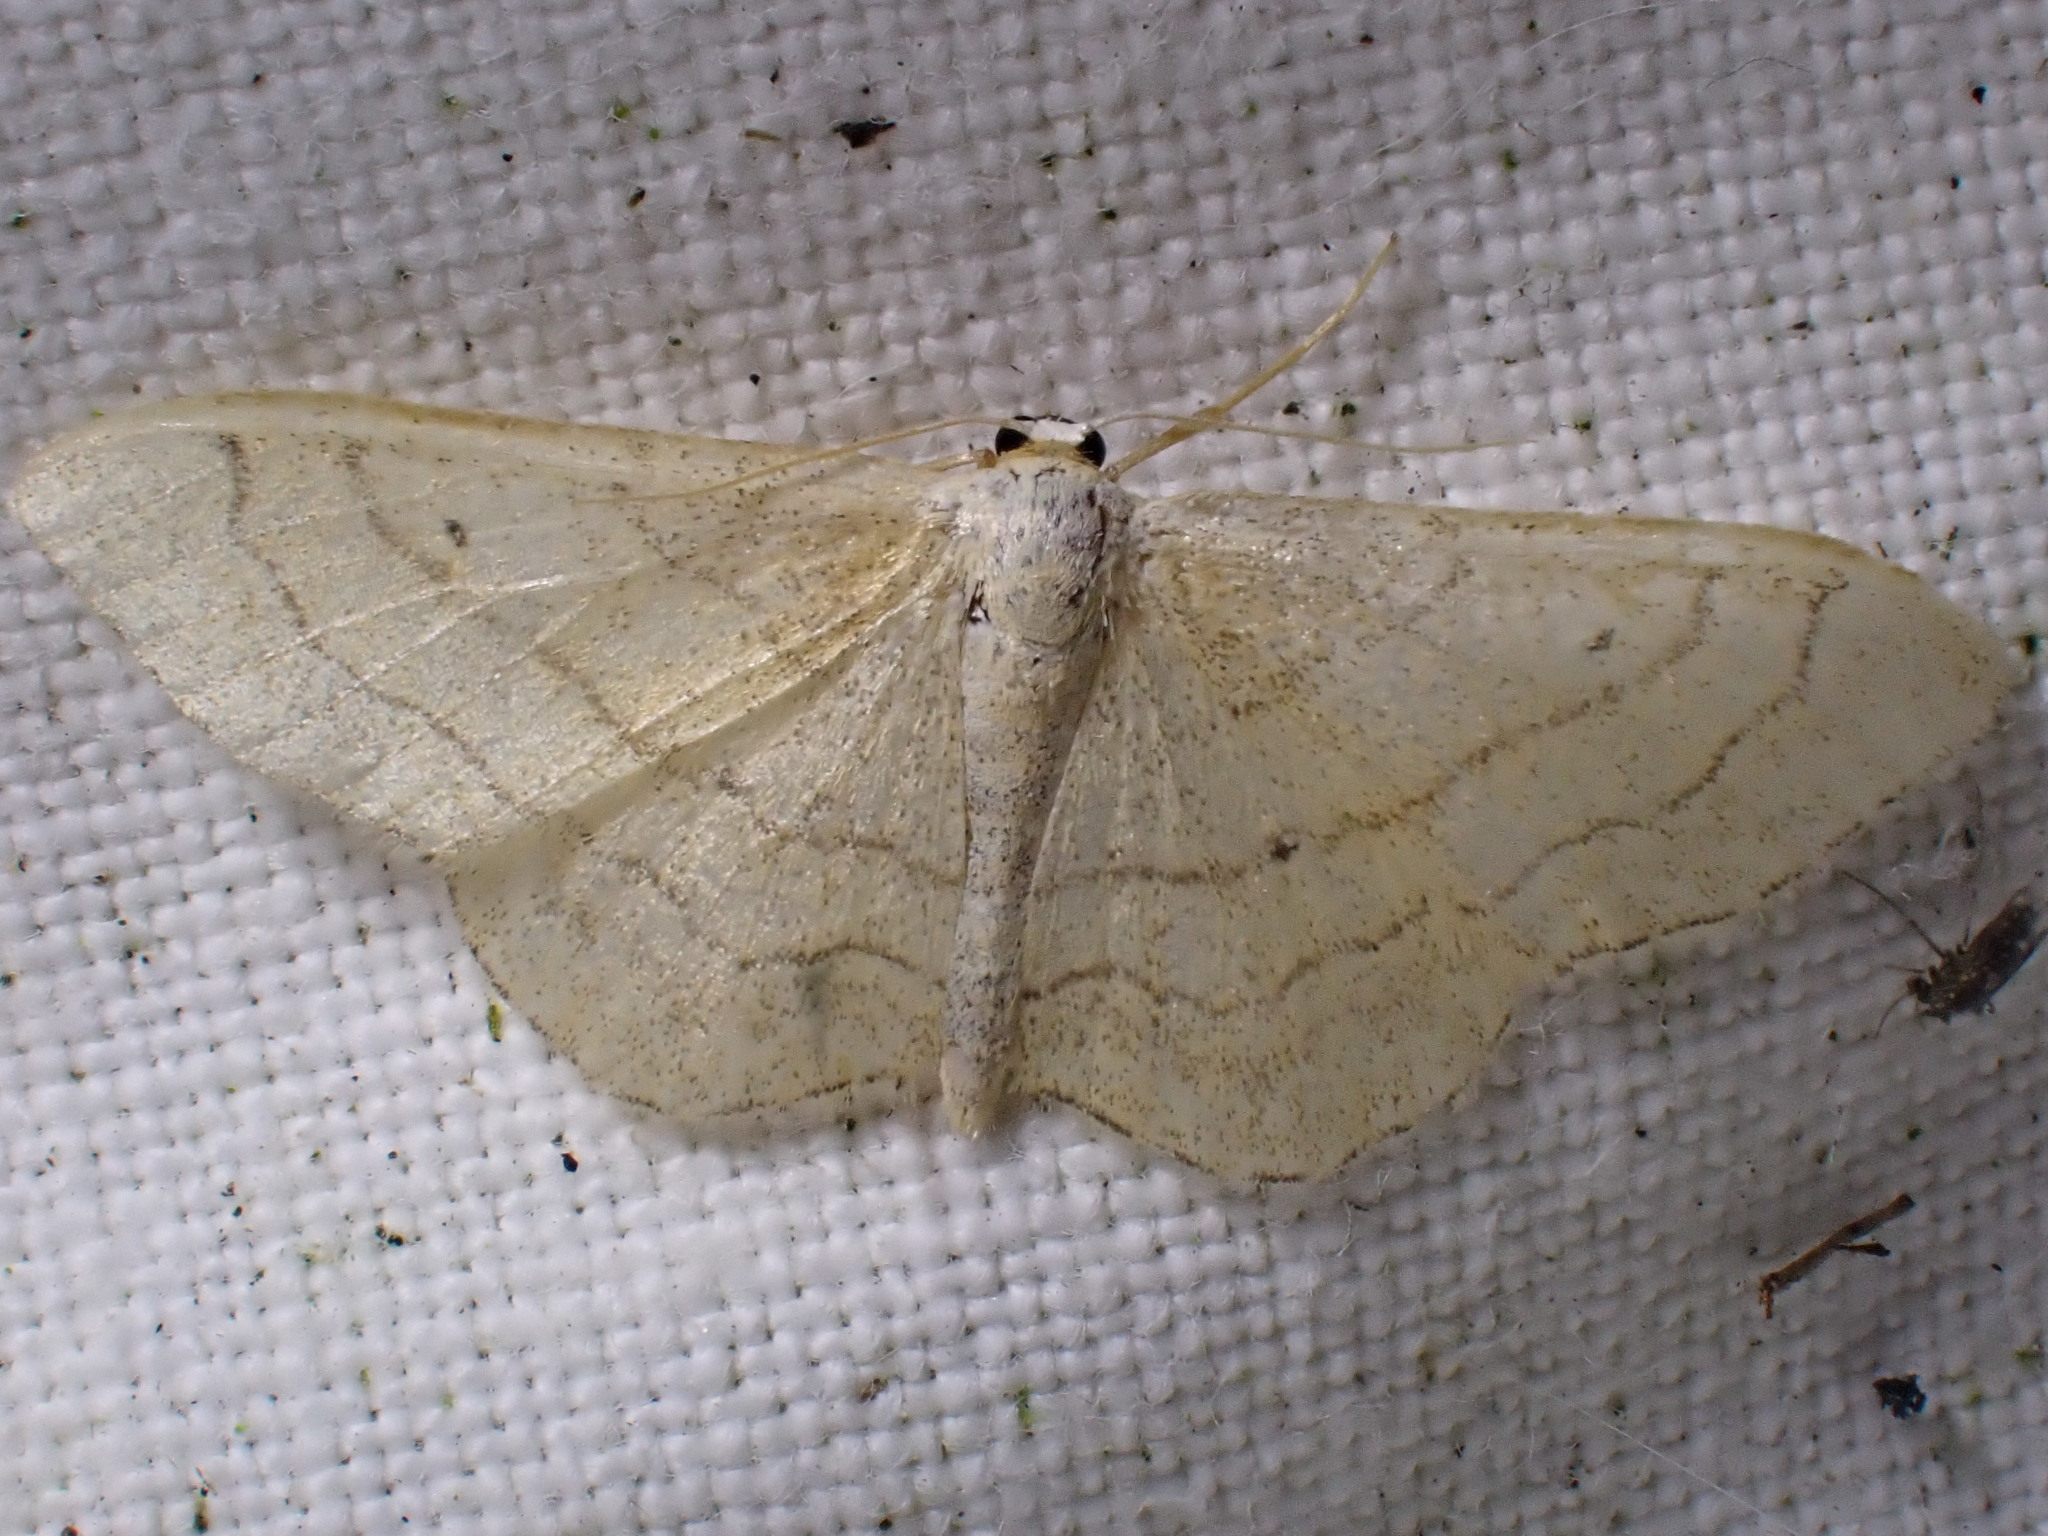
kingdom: Animalia
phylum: Arthropoda
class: Insecta
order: Lepidoptera
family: Geometridae
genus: Idaea
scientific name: Idaea aversata
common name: Riband wave
